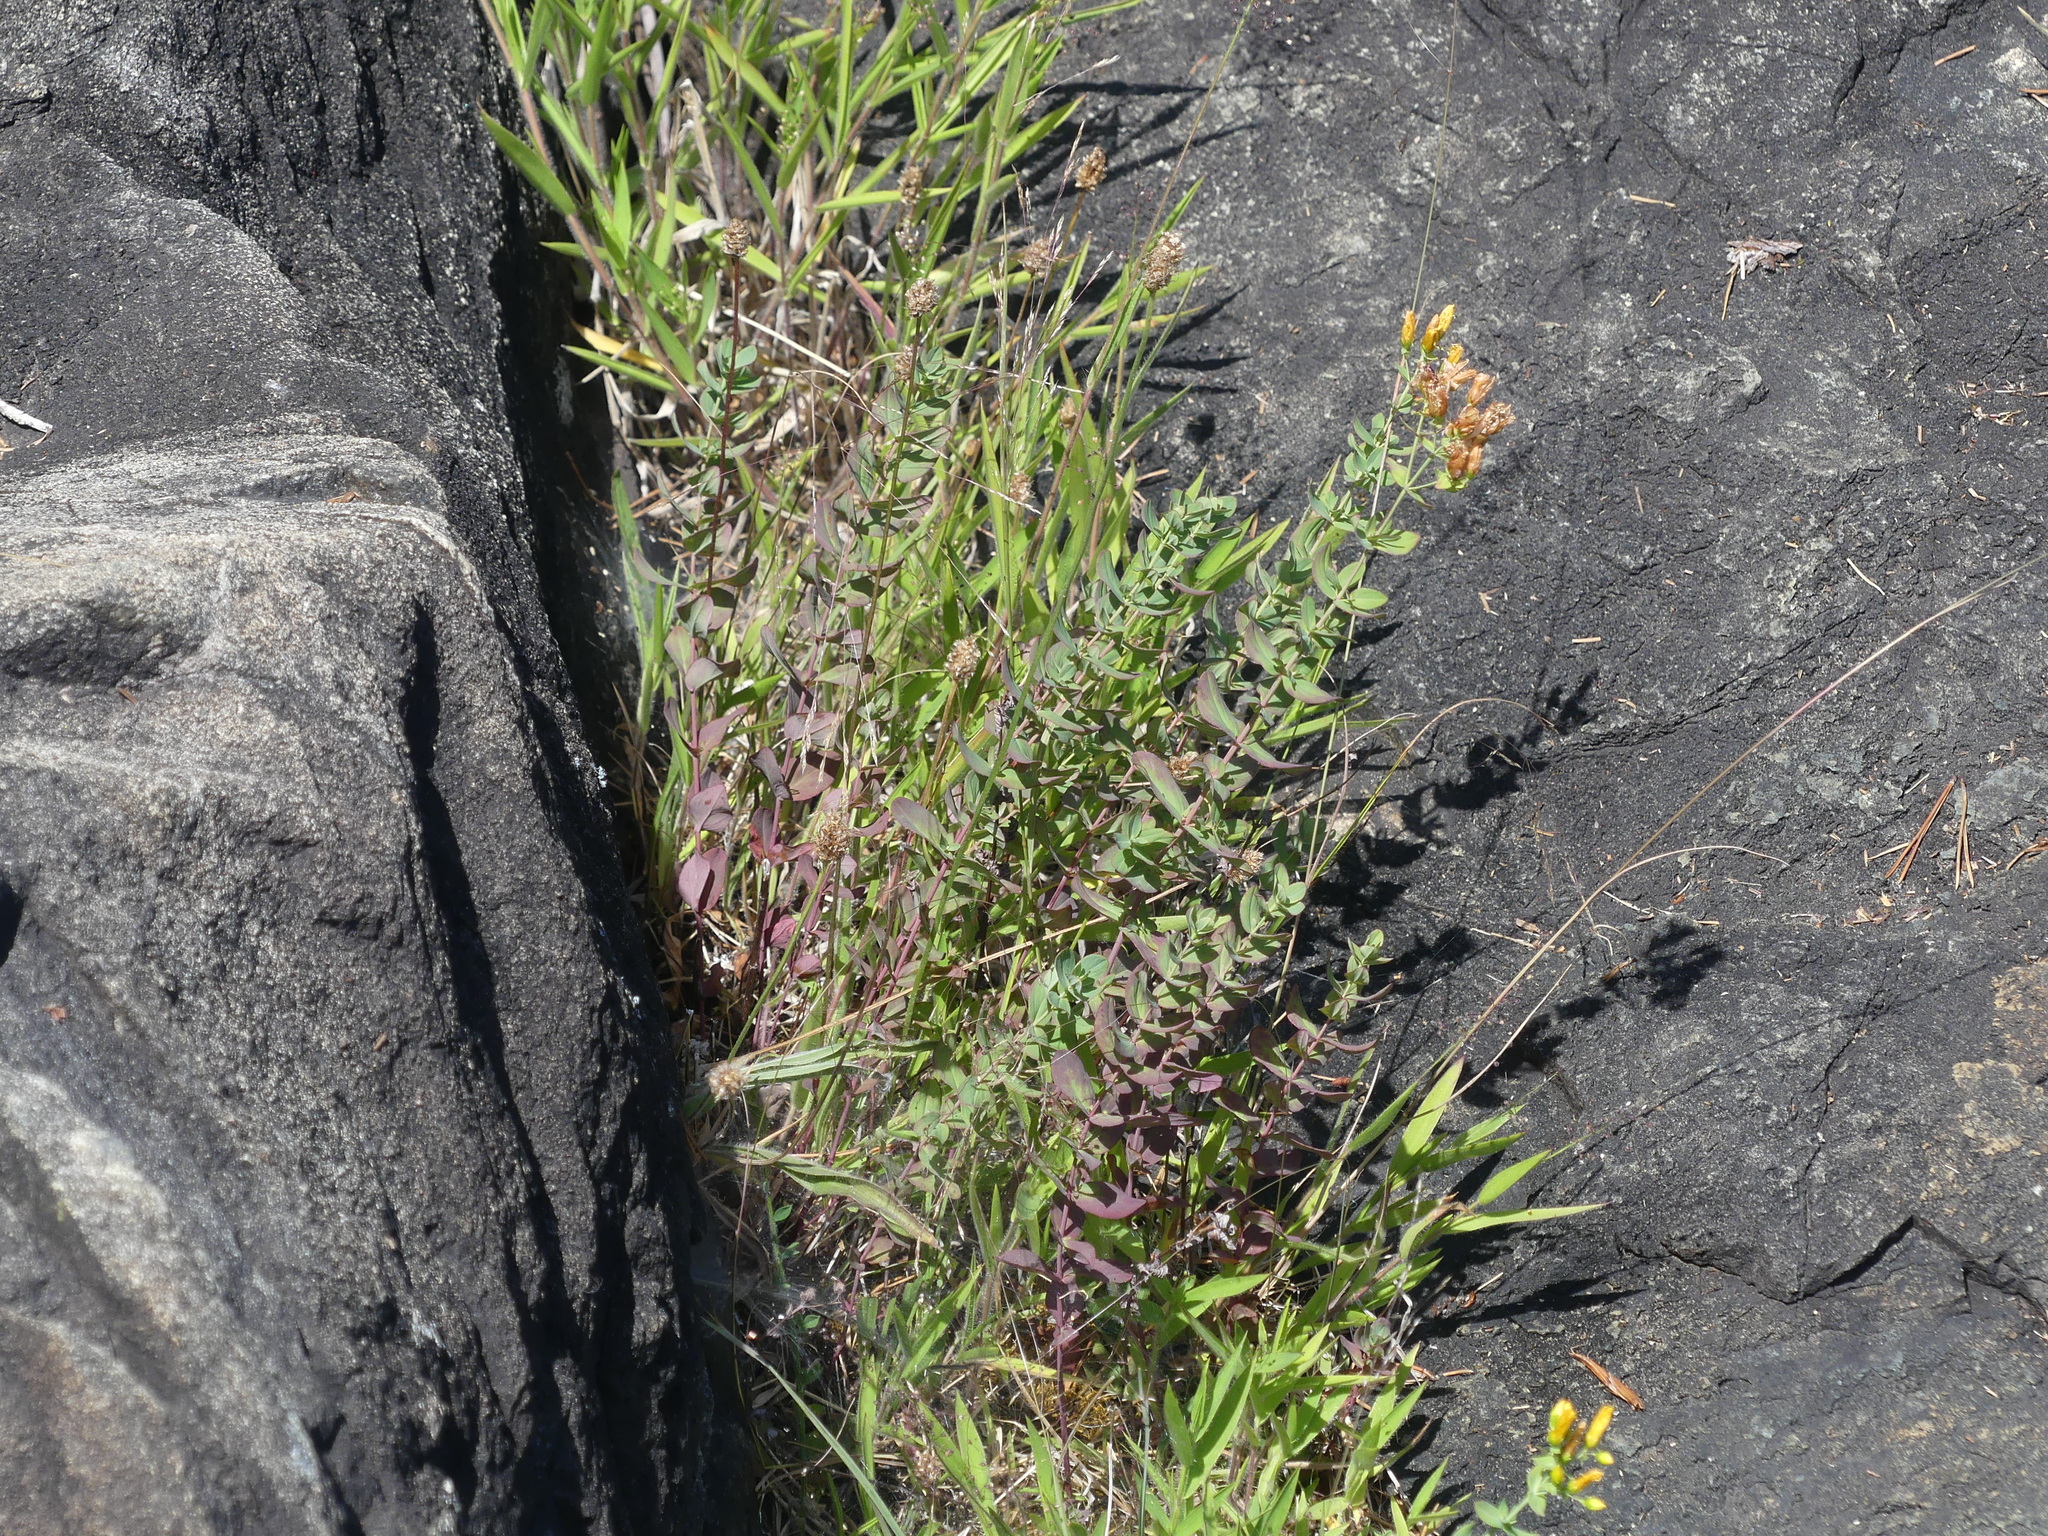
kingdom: Plantae
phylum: Tracheophyta
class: Magnoliopsida
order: Malpighiales
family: Hypericaceae
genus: Hypericum
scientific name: Hypericum scouleri
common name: Scouler's st. john's-wort
